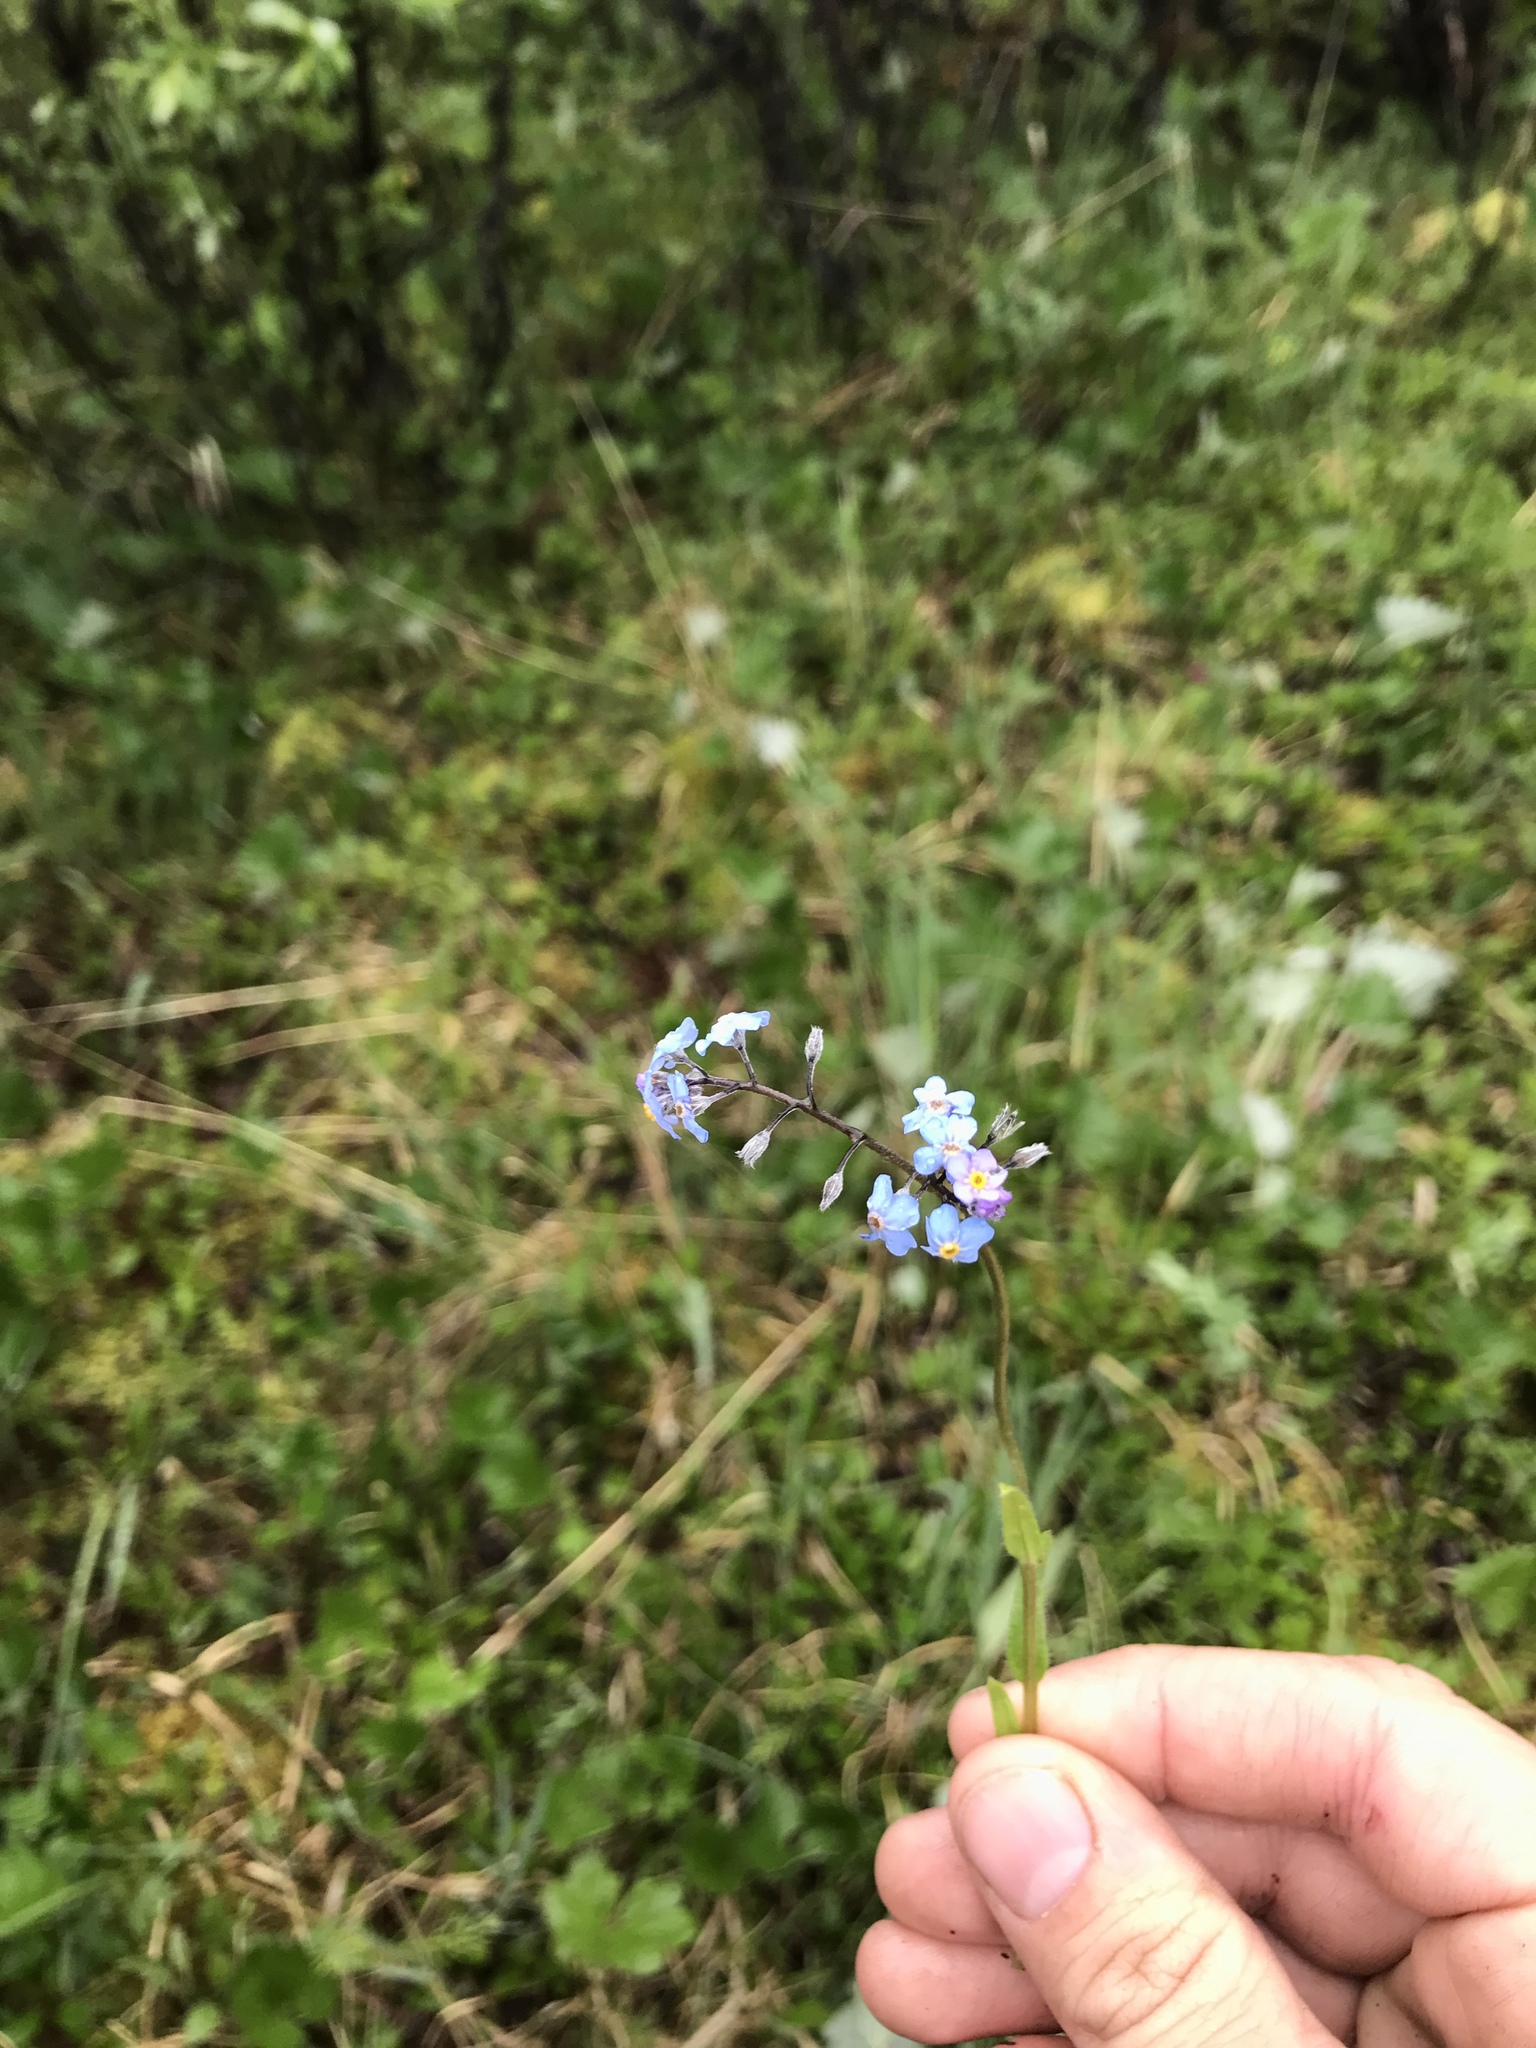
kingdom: Plantae
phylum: Tracheophyta
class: Magnoliopsida
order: Boraginales
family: Boraginaceae
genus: Myosotis
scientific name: Myosotis asiatica
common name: Asian forget-me-not
